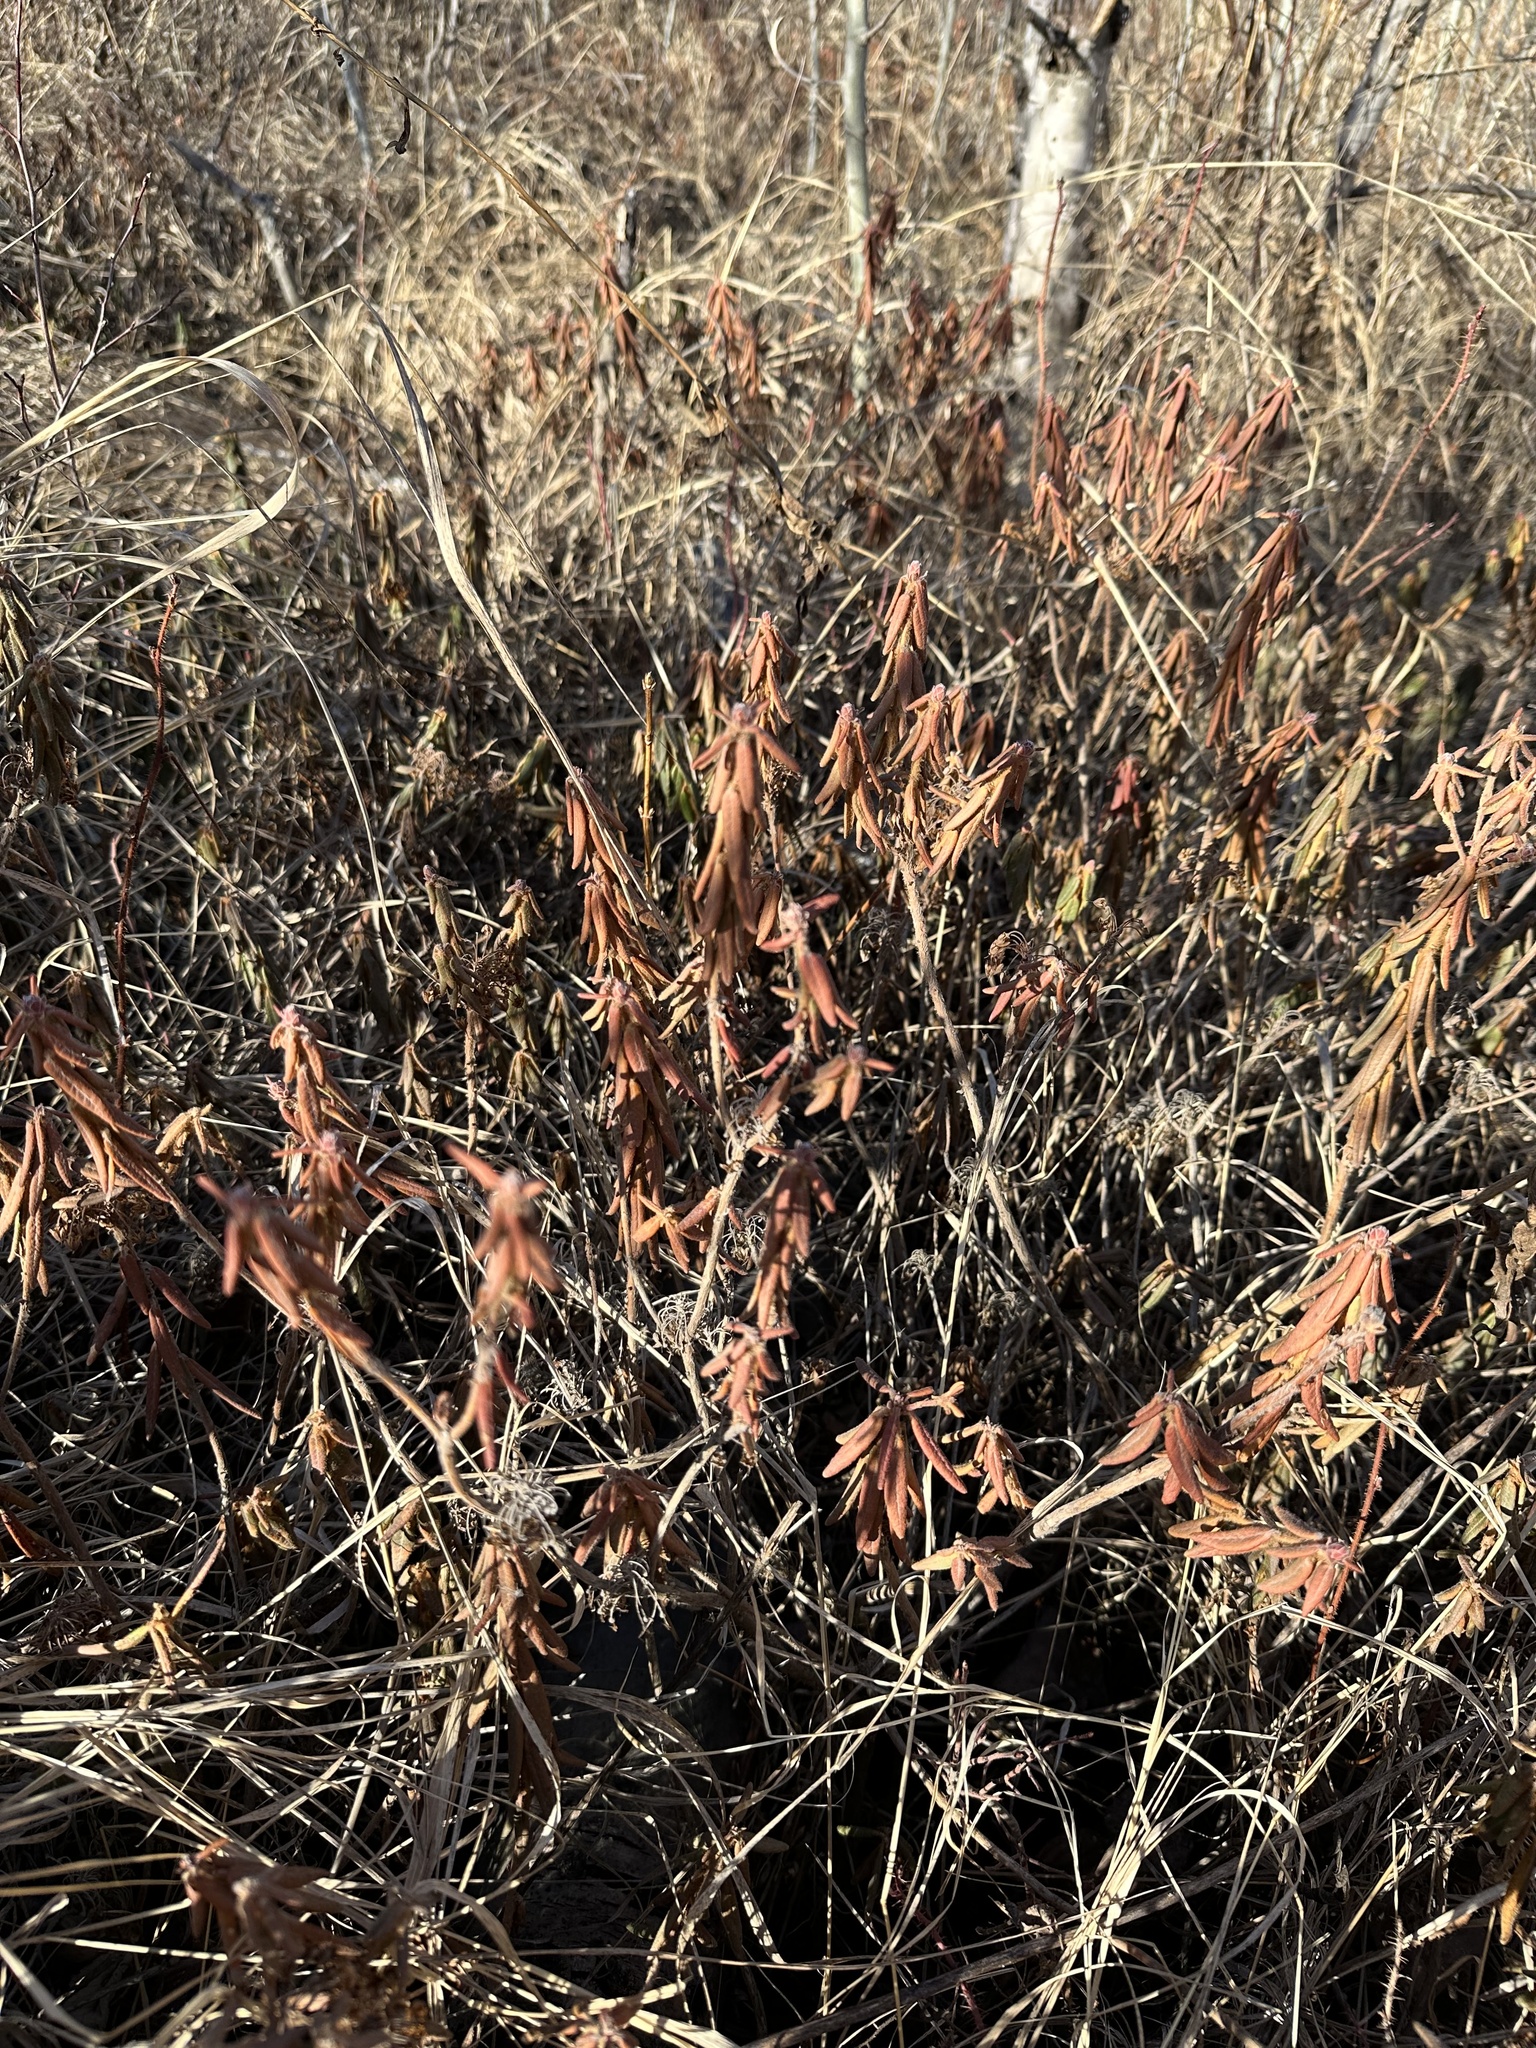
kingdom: Plantae
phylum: Tracheophyta
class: Magnoliopsida
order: Ericales
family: Ericaceae
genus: Rhododendron
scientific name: Rhododendron groenlandicum
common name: Bog labrador tea
